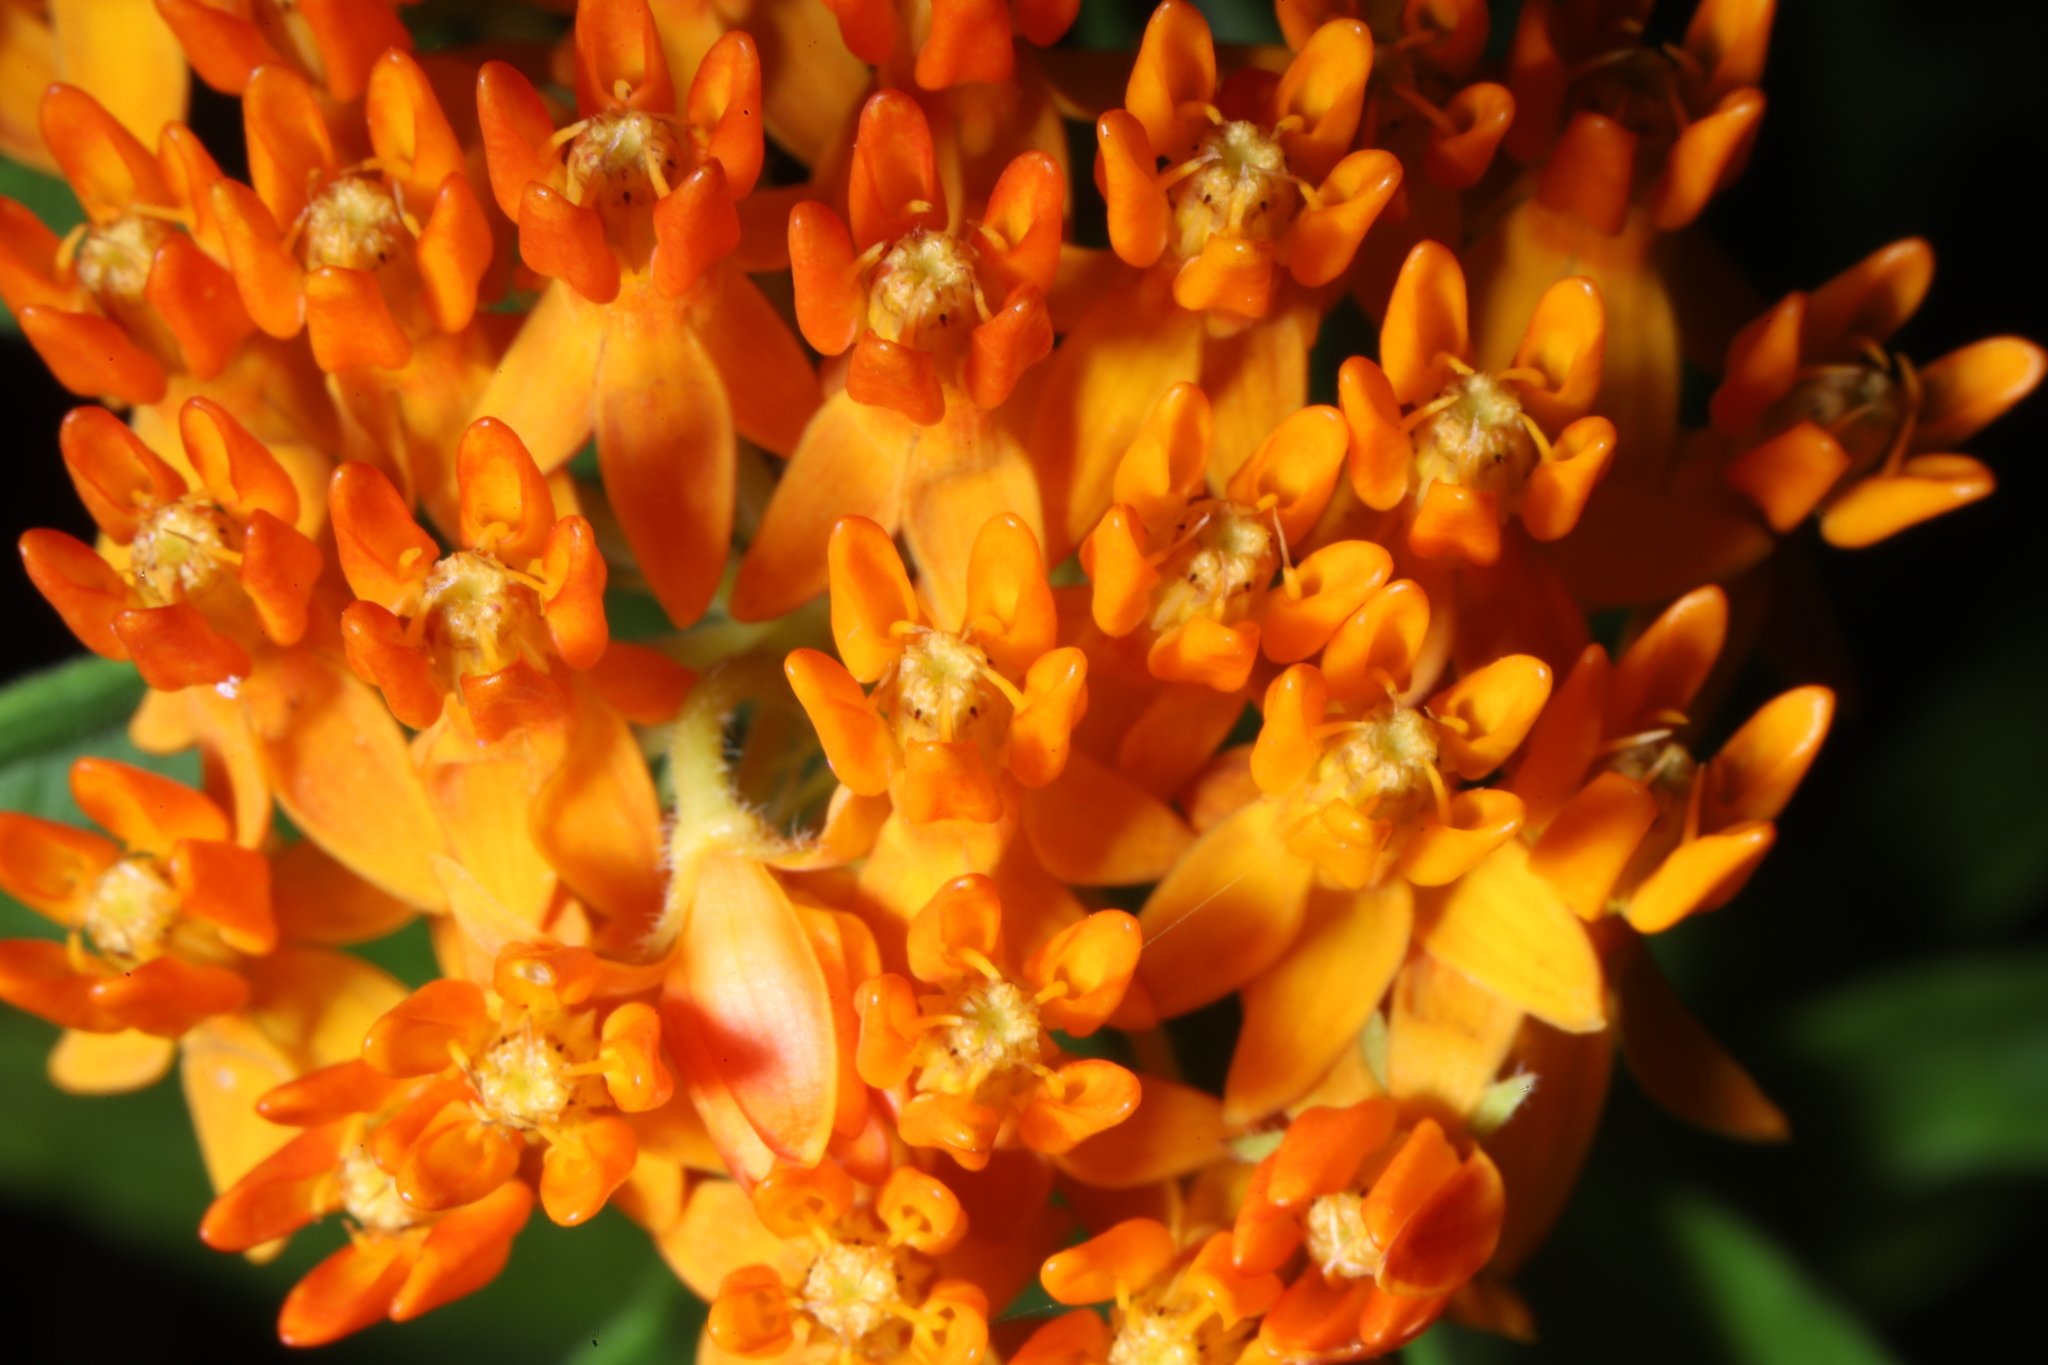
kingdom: Plantae
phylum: Tracheophyta
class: Magnoliopsida
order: Gentianales
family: Apocynaceae
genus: Asclepias
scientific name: Asclepias tuberosa
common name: Butterfly milkweed
